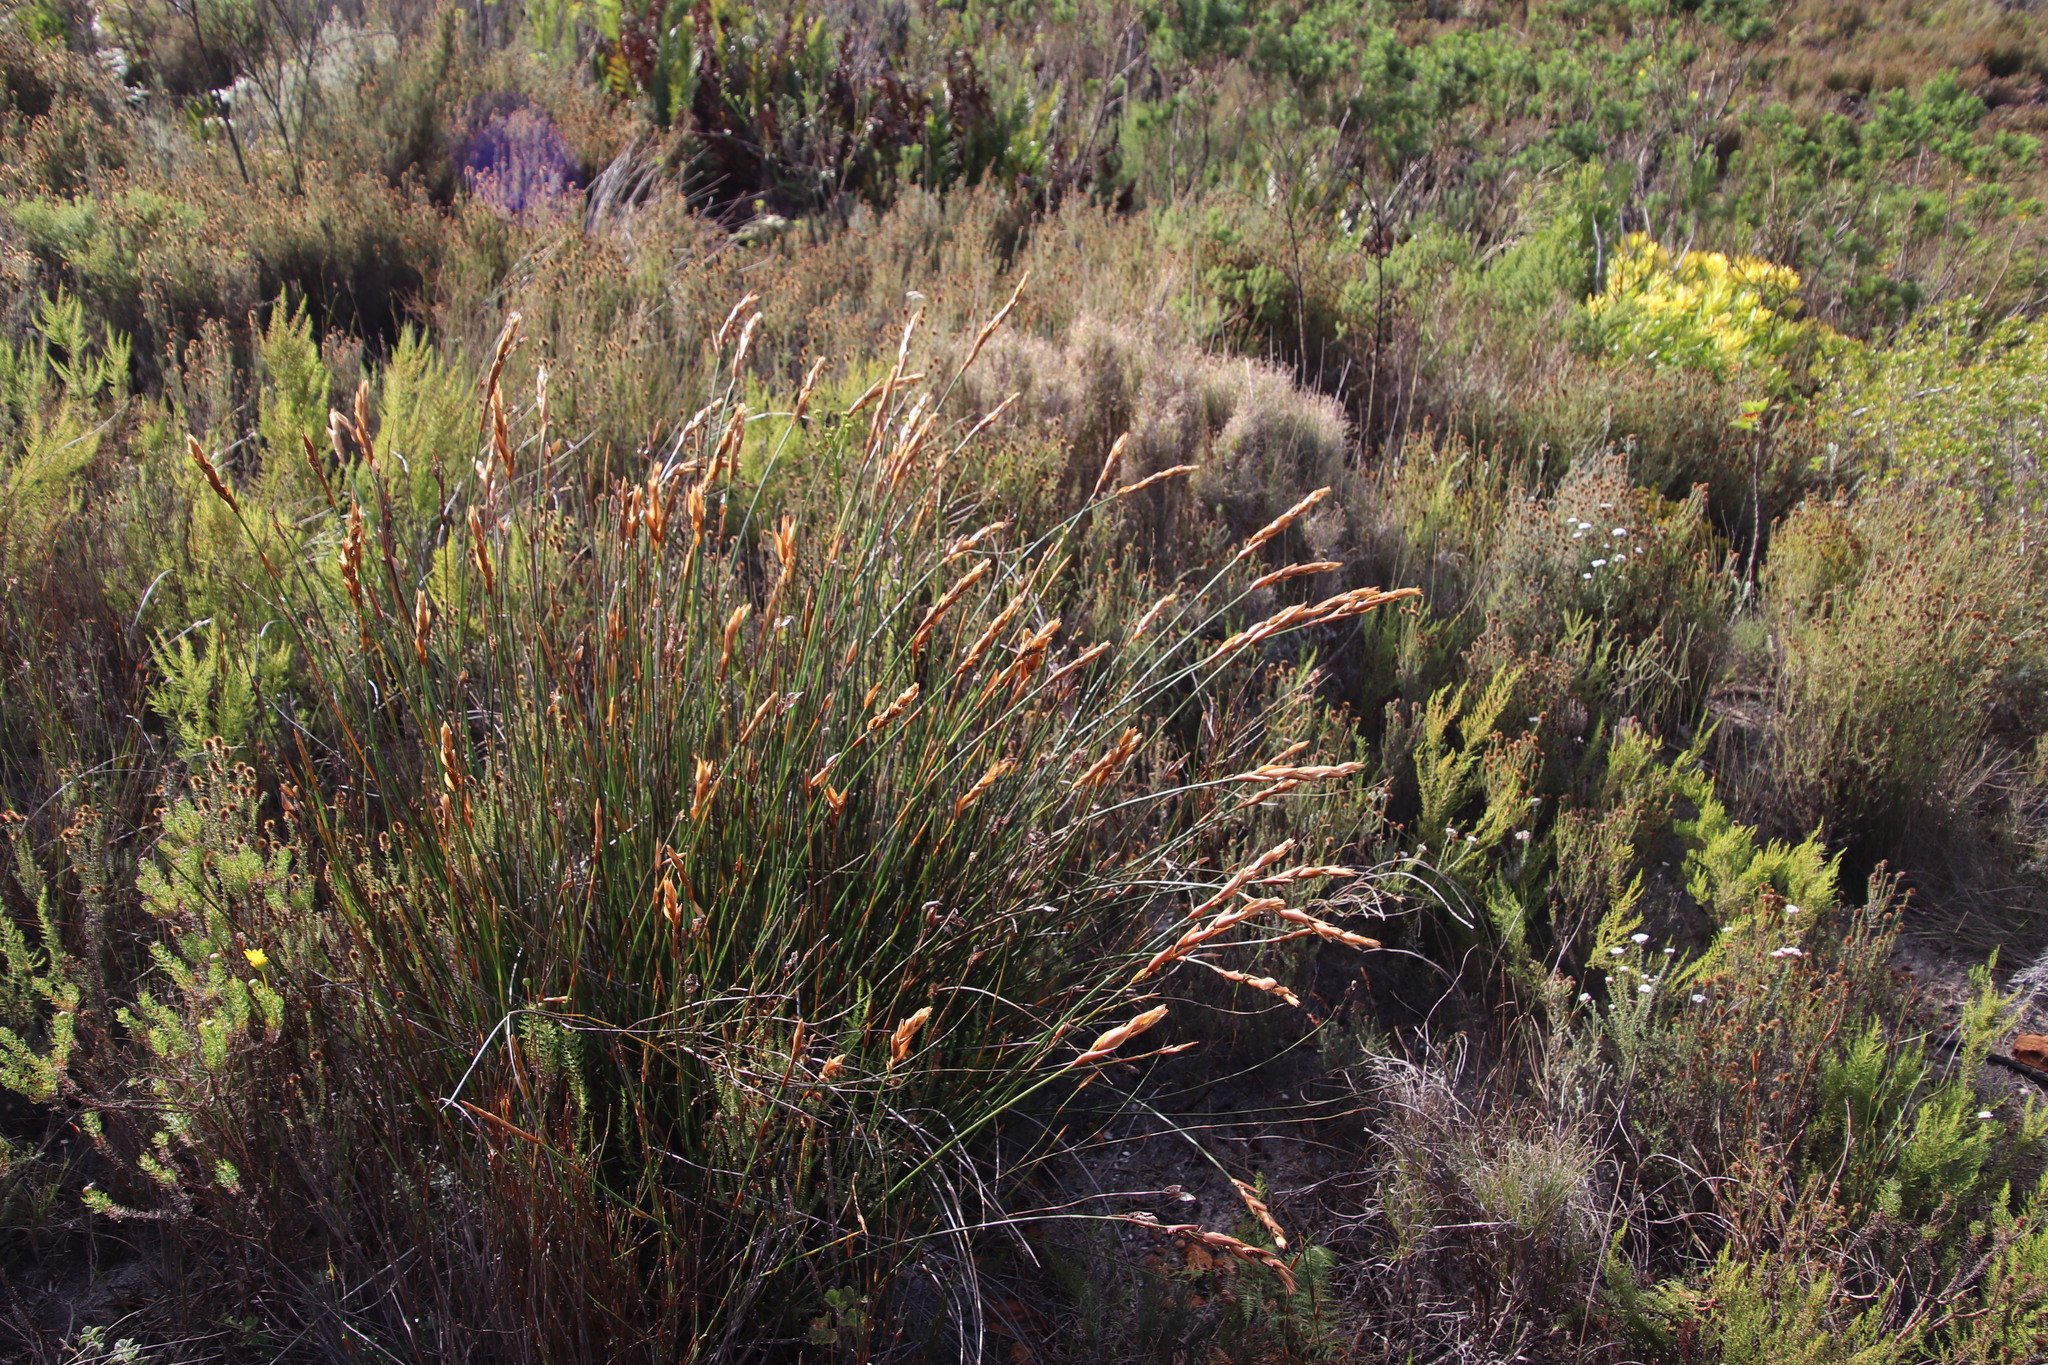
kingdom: Plantae
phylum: Tracheophyta
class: Liliopsida
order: Poales
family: Restionaceae
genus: Elegia
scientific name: Elegia racemosa
